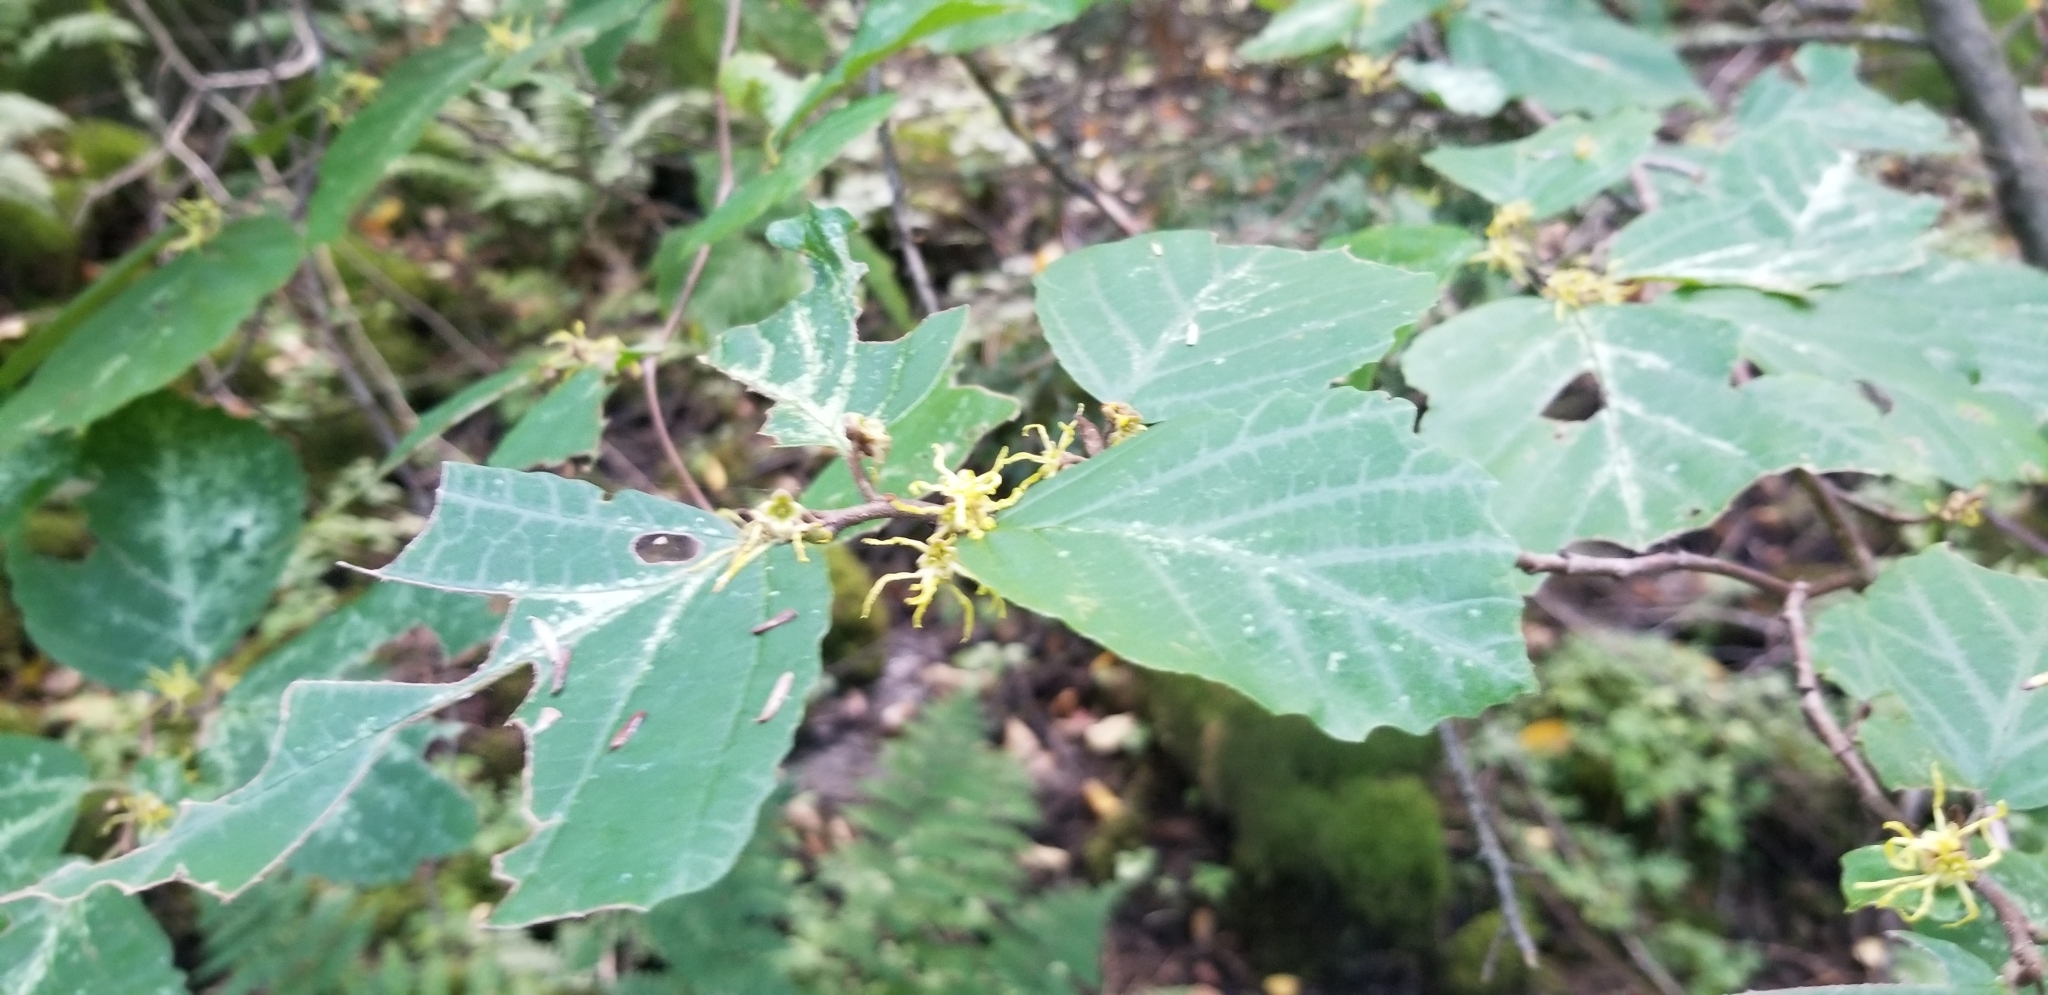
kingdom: Plantae
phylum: Tracheophyta
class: Magnoliopsida
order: Saxifragales
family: Hamamelidaceae
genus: Hamamelis
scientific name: Hamamelis virginiana
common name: Witch-hazel
